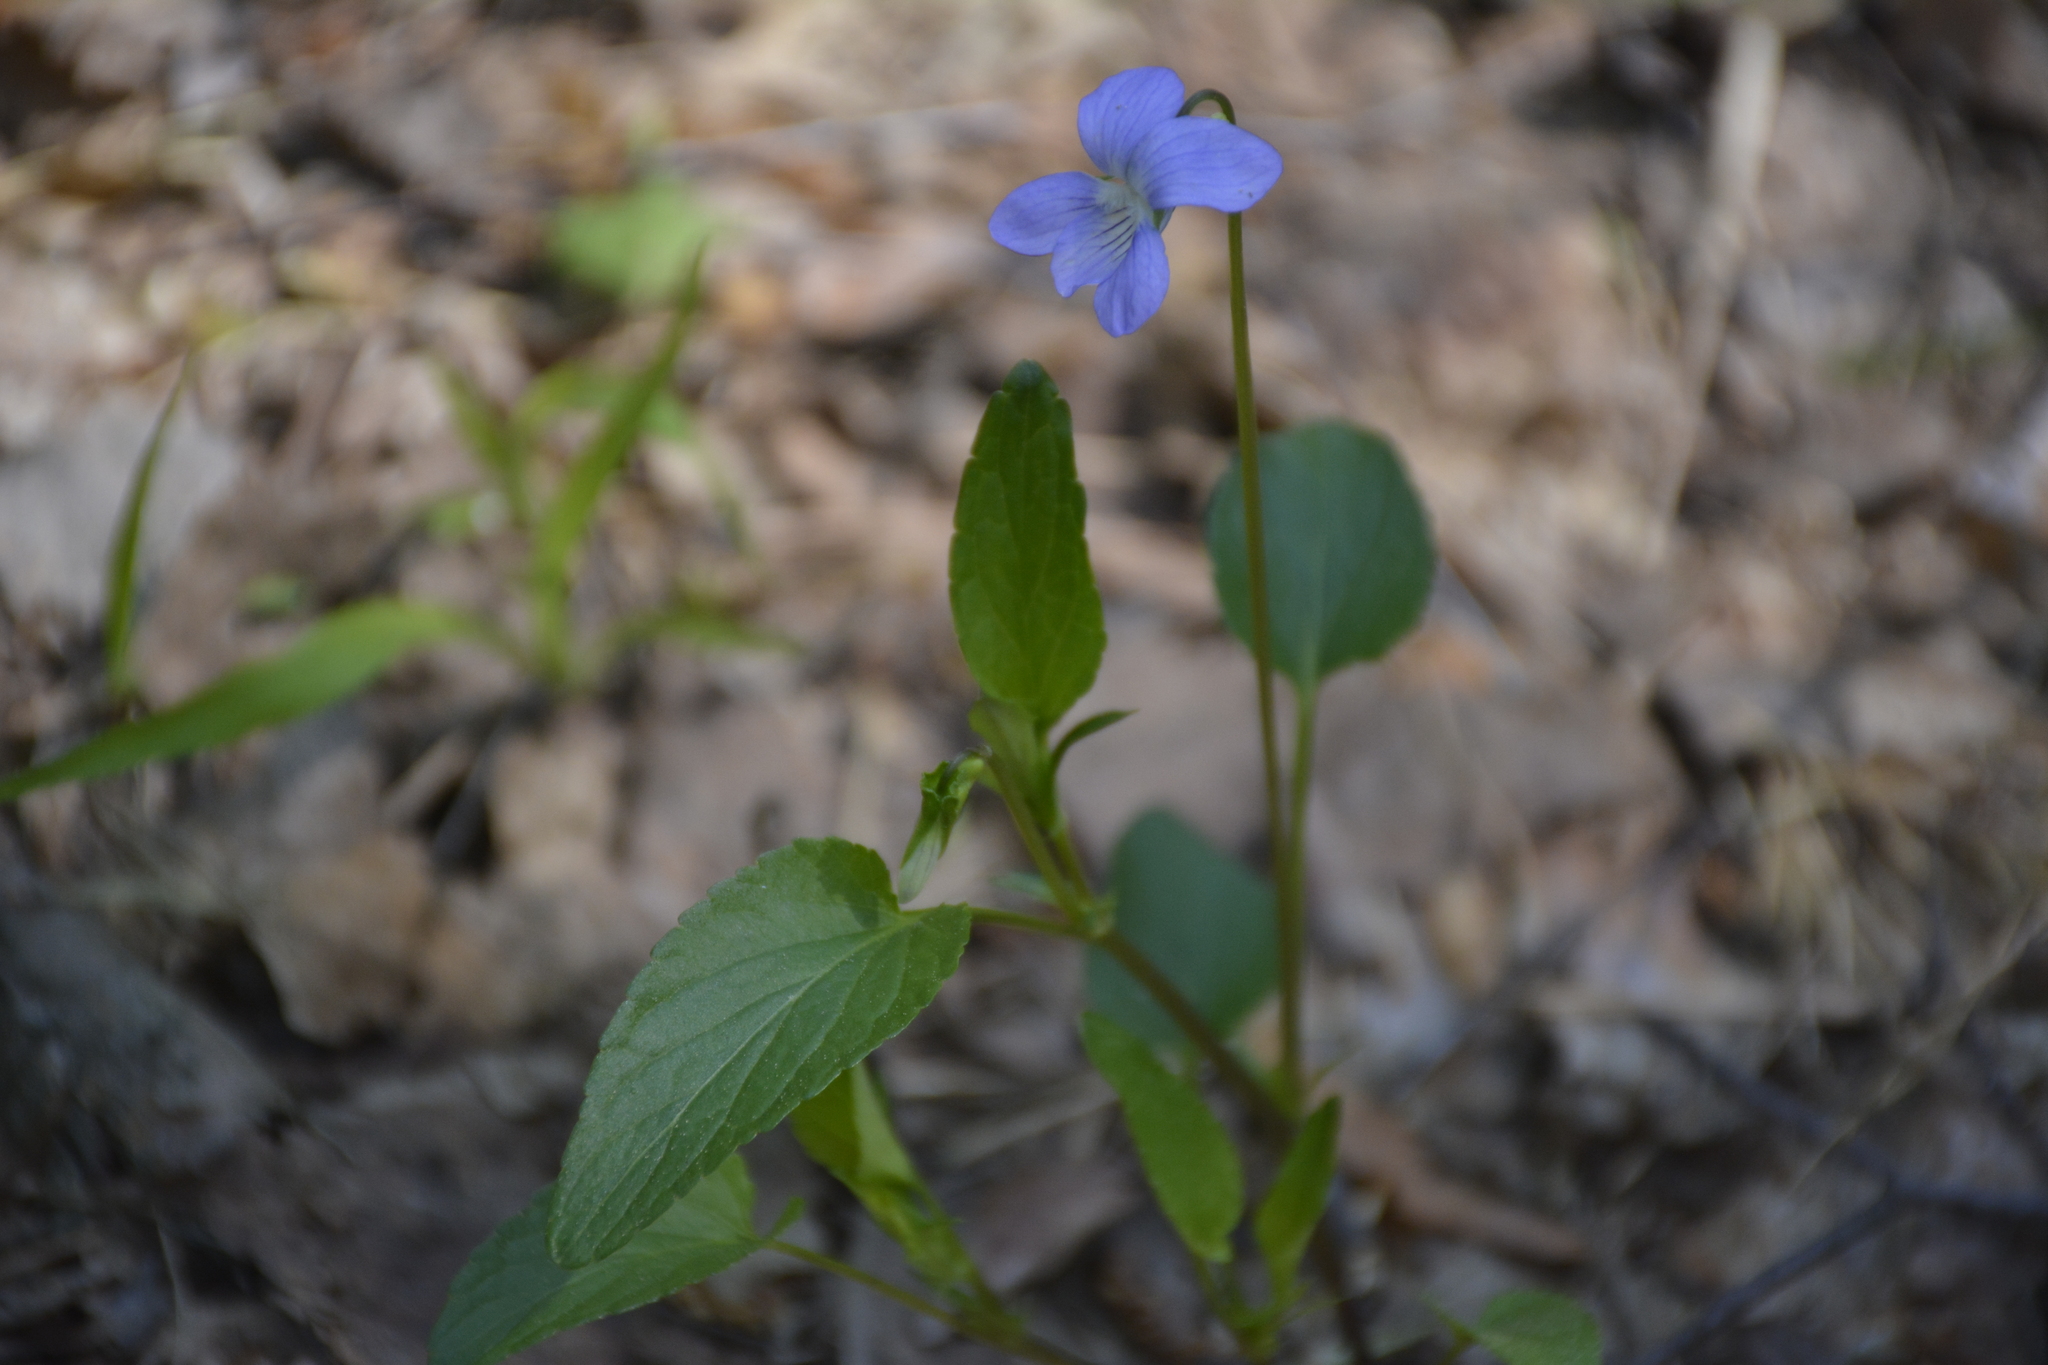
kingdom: Plantae
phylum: Tracheophyta
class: Magnoliopsida
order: Malpighiales
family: Violaceae
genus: Viola
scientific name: Viola
